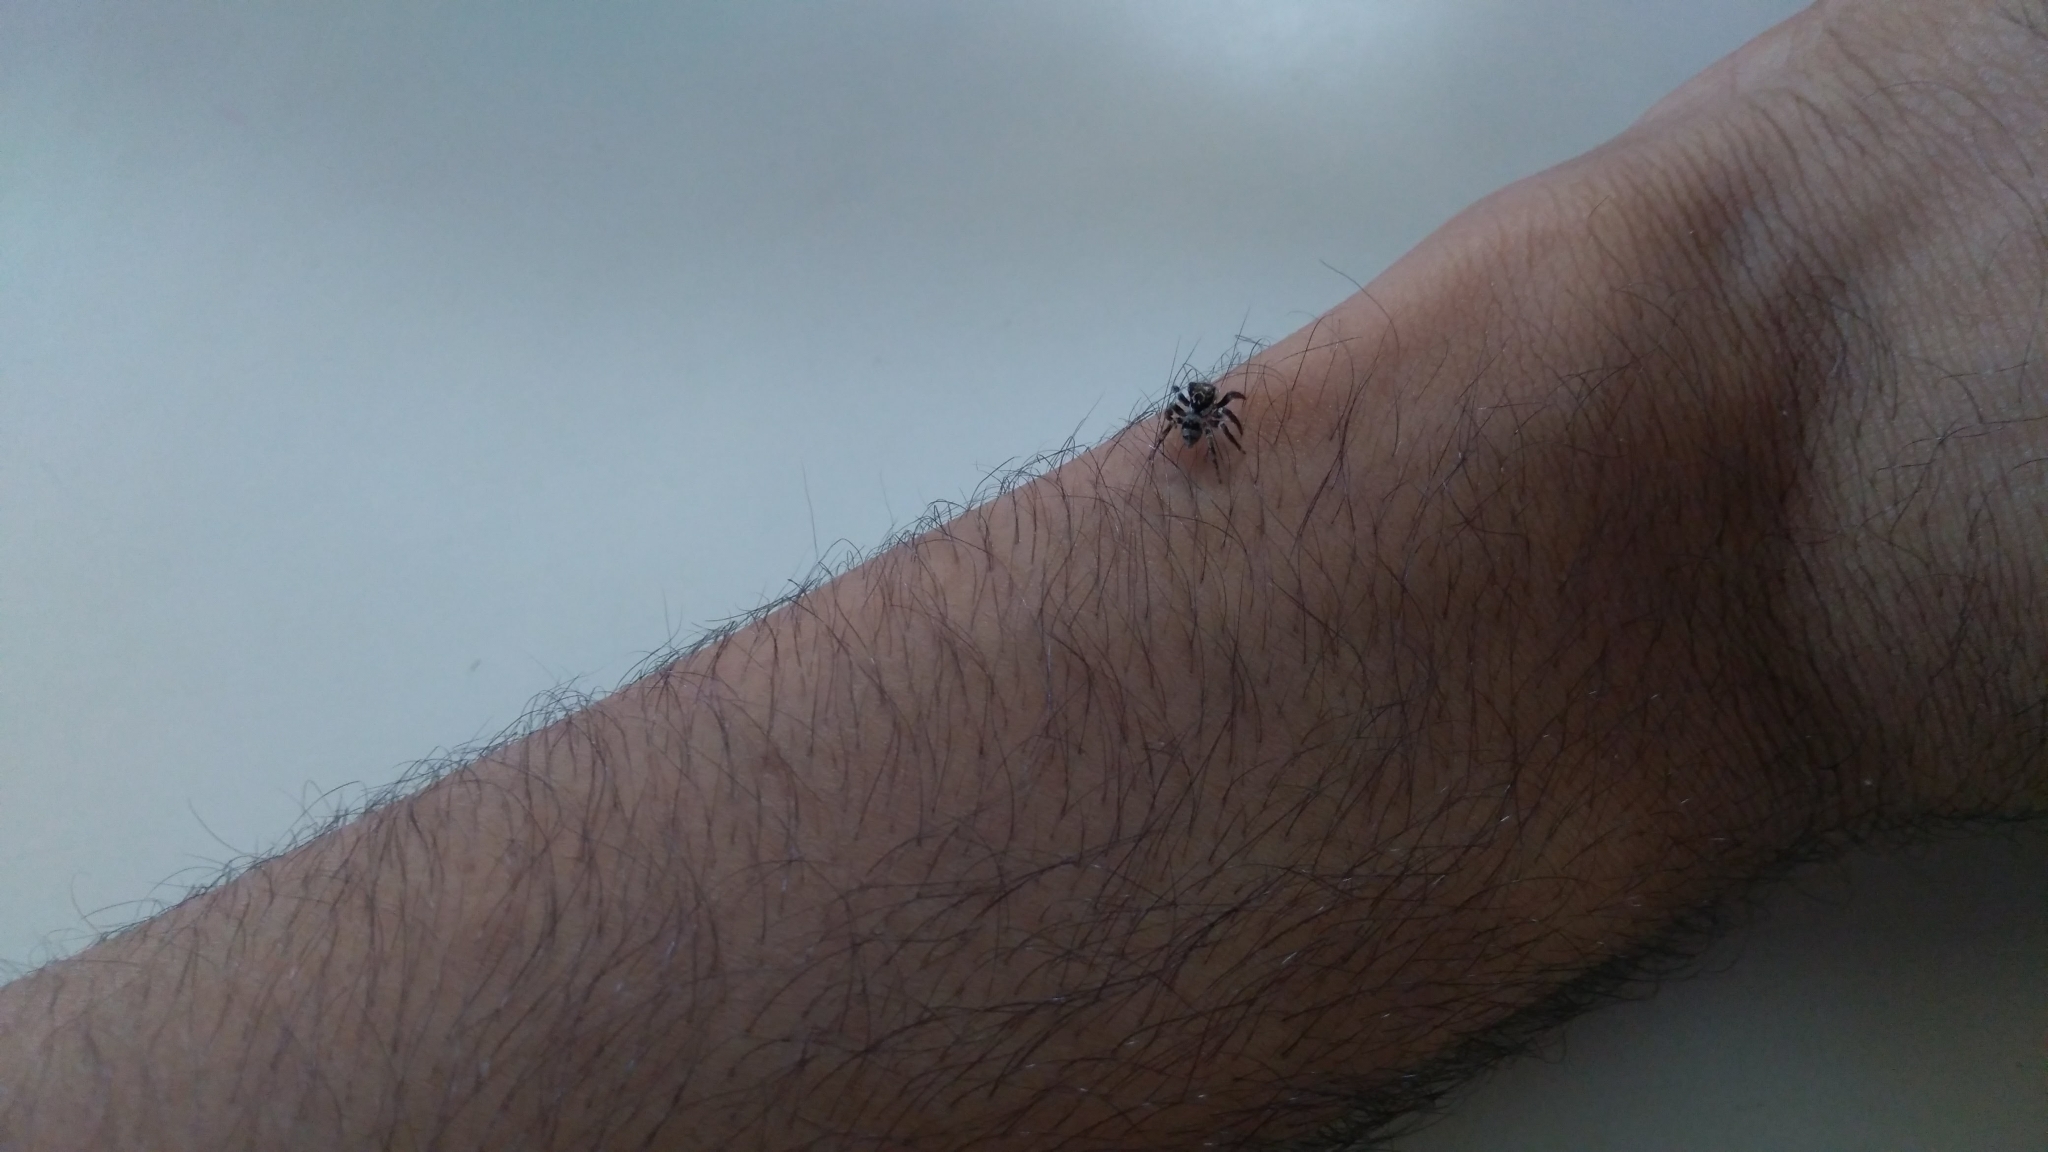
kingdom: Animalia
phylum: Arthropoda
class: Arachnida
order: Araneae
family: Salticidae
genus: Corythalia
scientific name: Corythalia conferta
